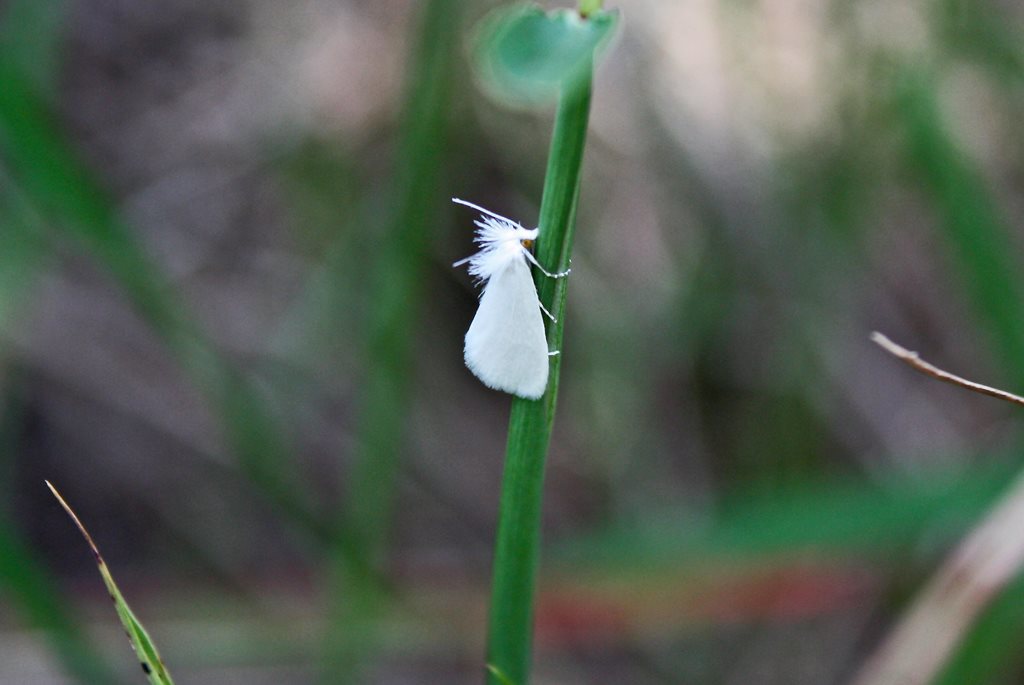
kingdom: Animalia
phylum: Arthropoda
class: Insecta
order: Lepidoptera
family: Crambidae
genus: Tipanaea
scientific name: Tipanaea patulella
